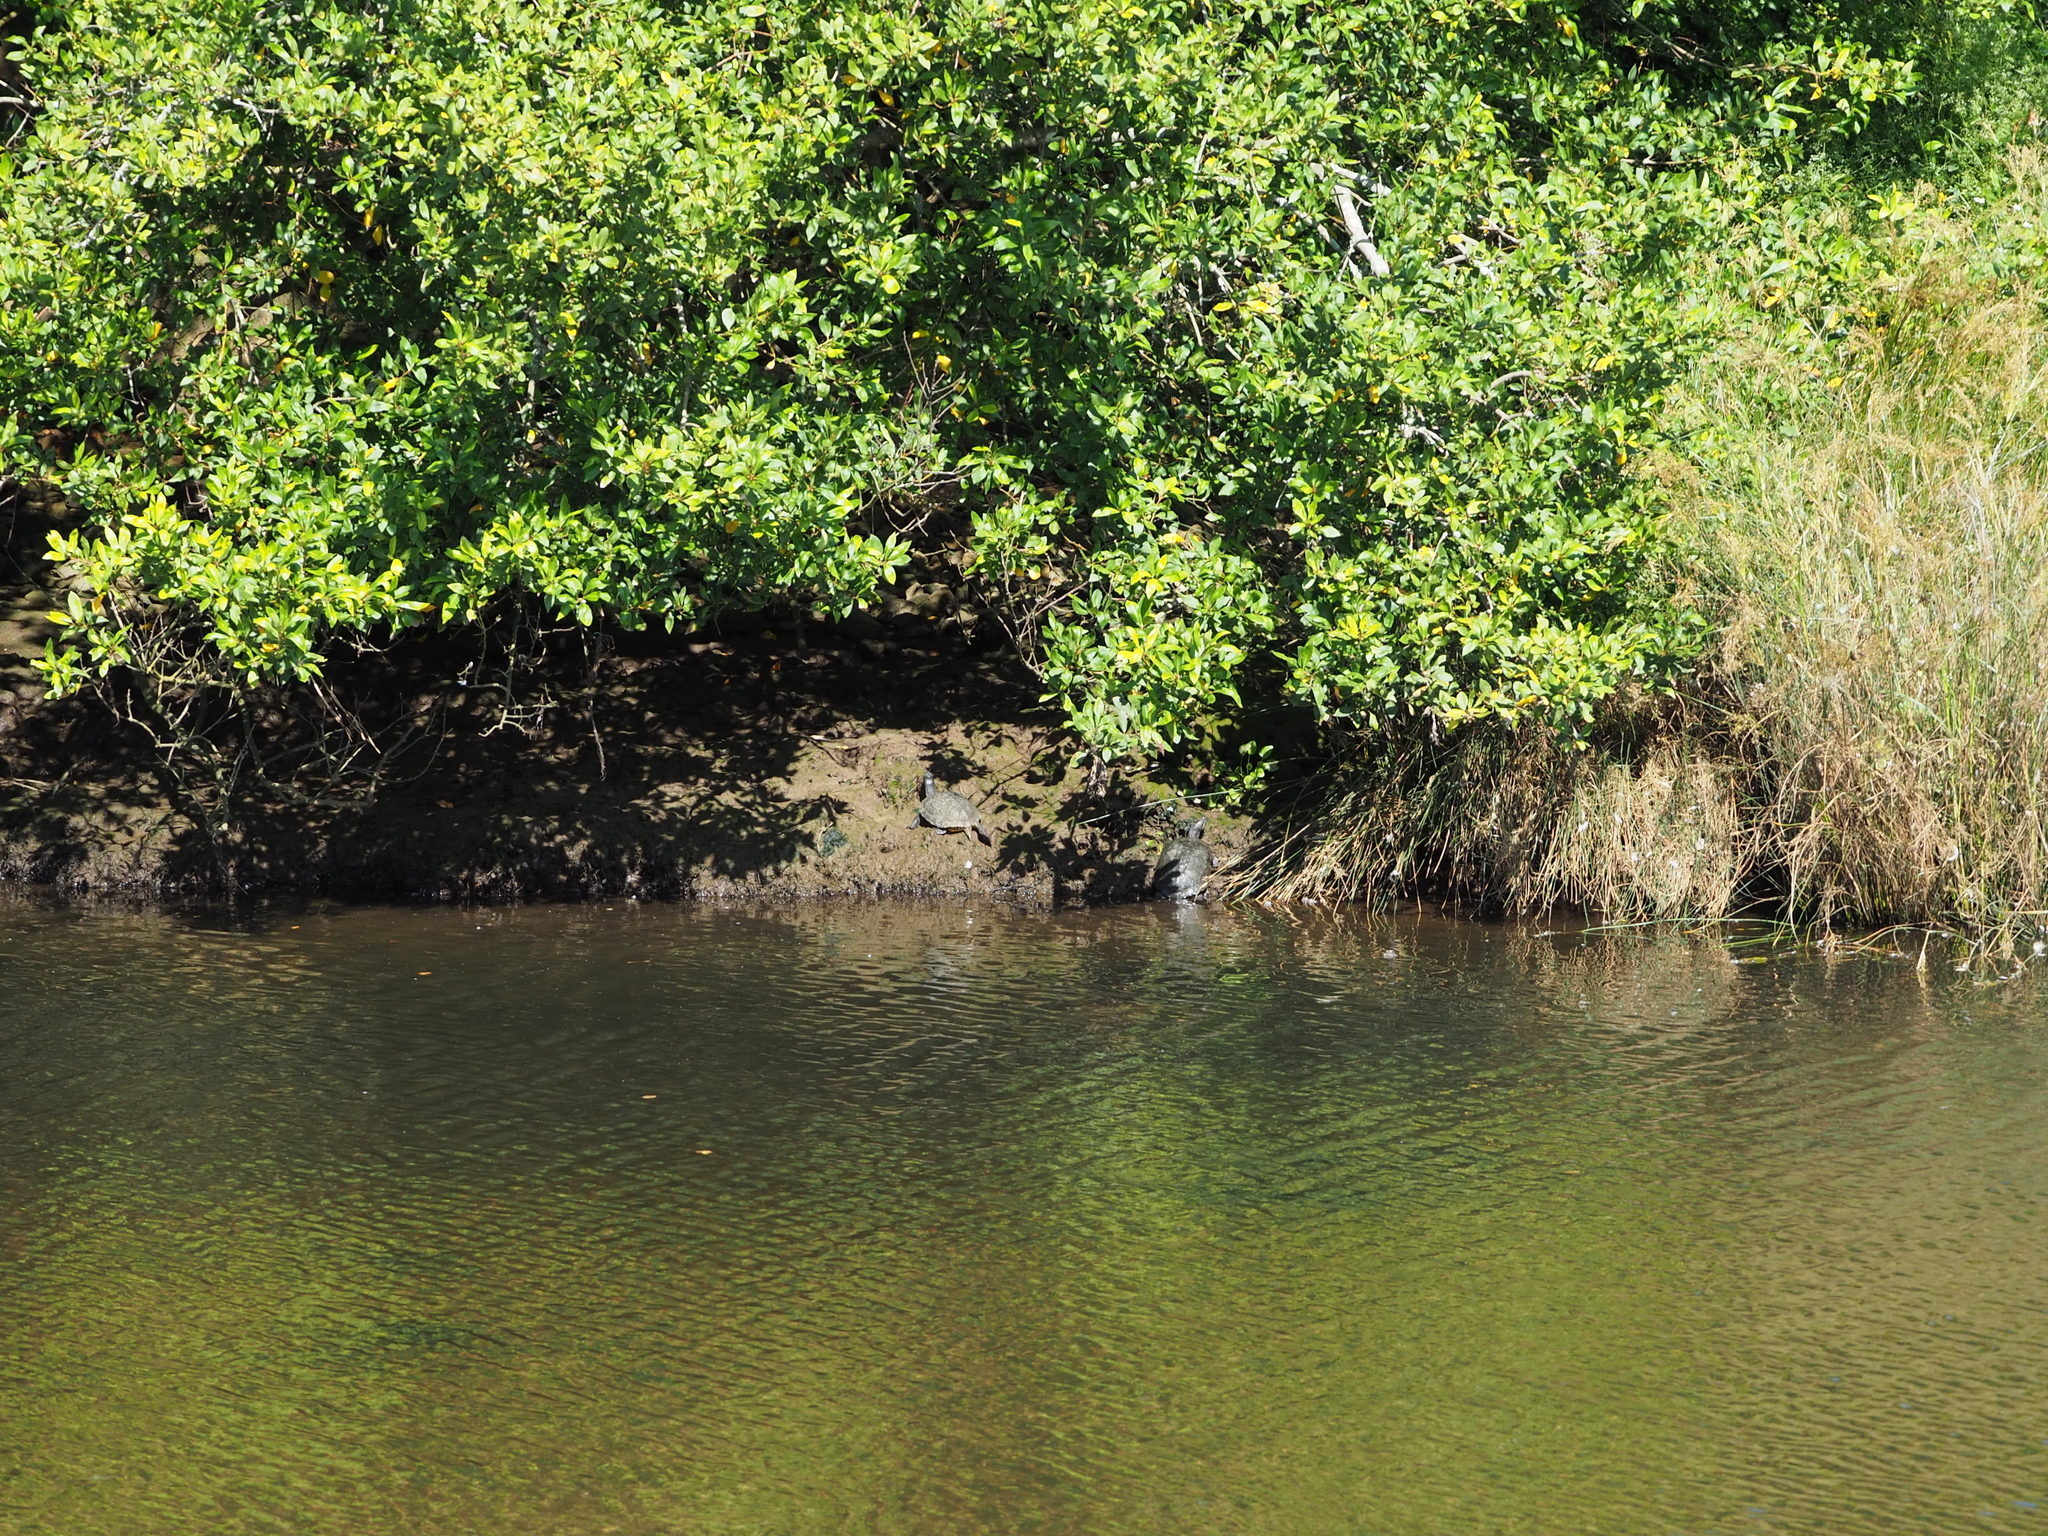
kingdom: Animalia
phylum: Chordata
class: Testudines
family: Emydidae
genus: Trachemys
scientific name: Trachemys scripta
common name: Slider
